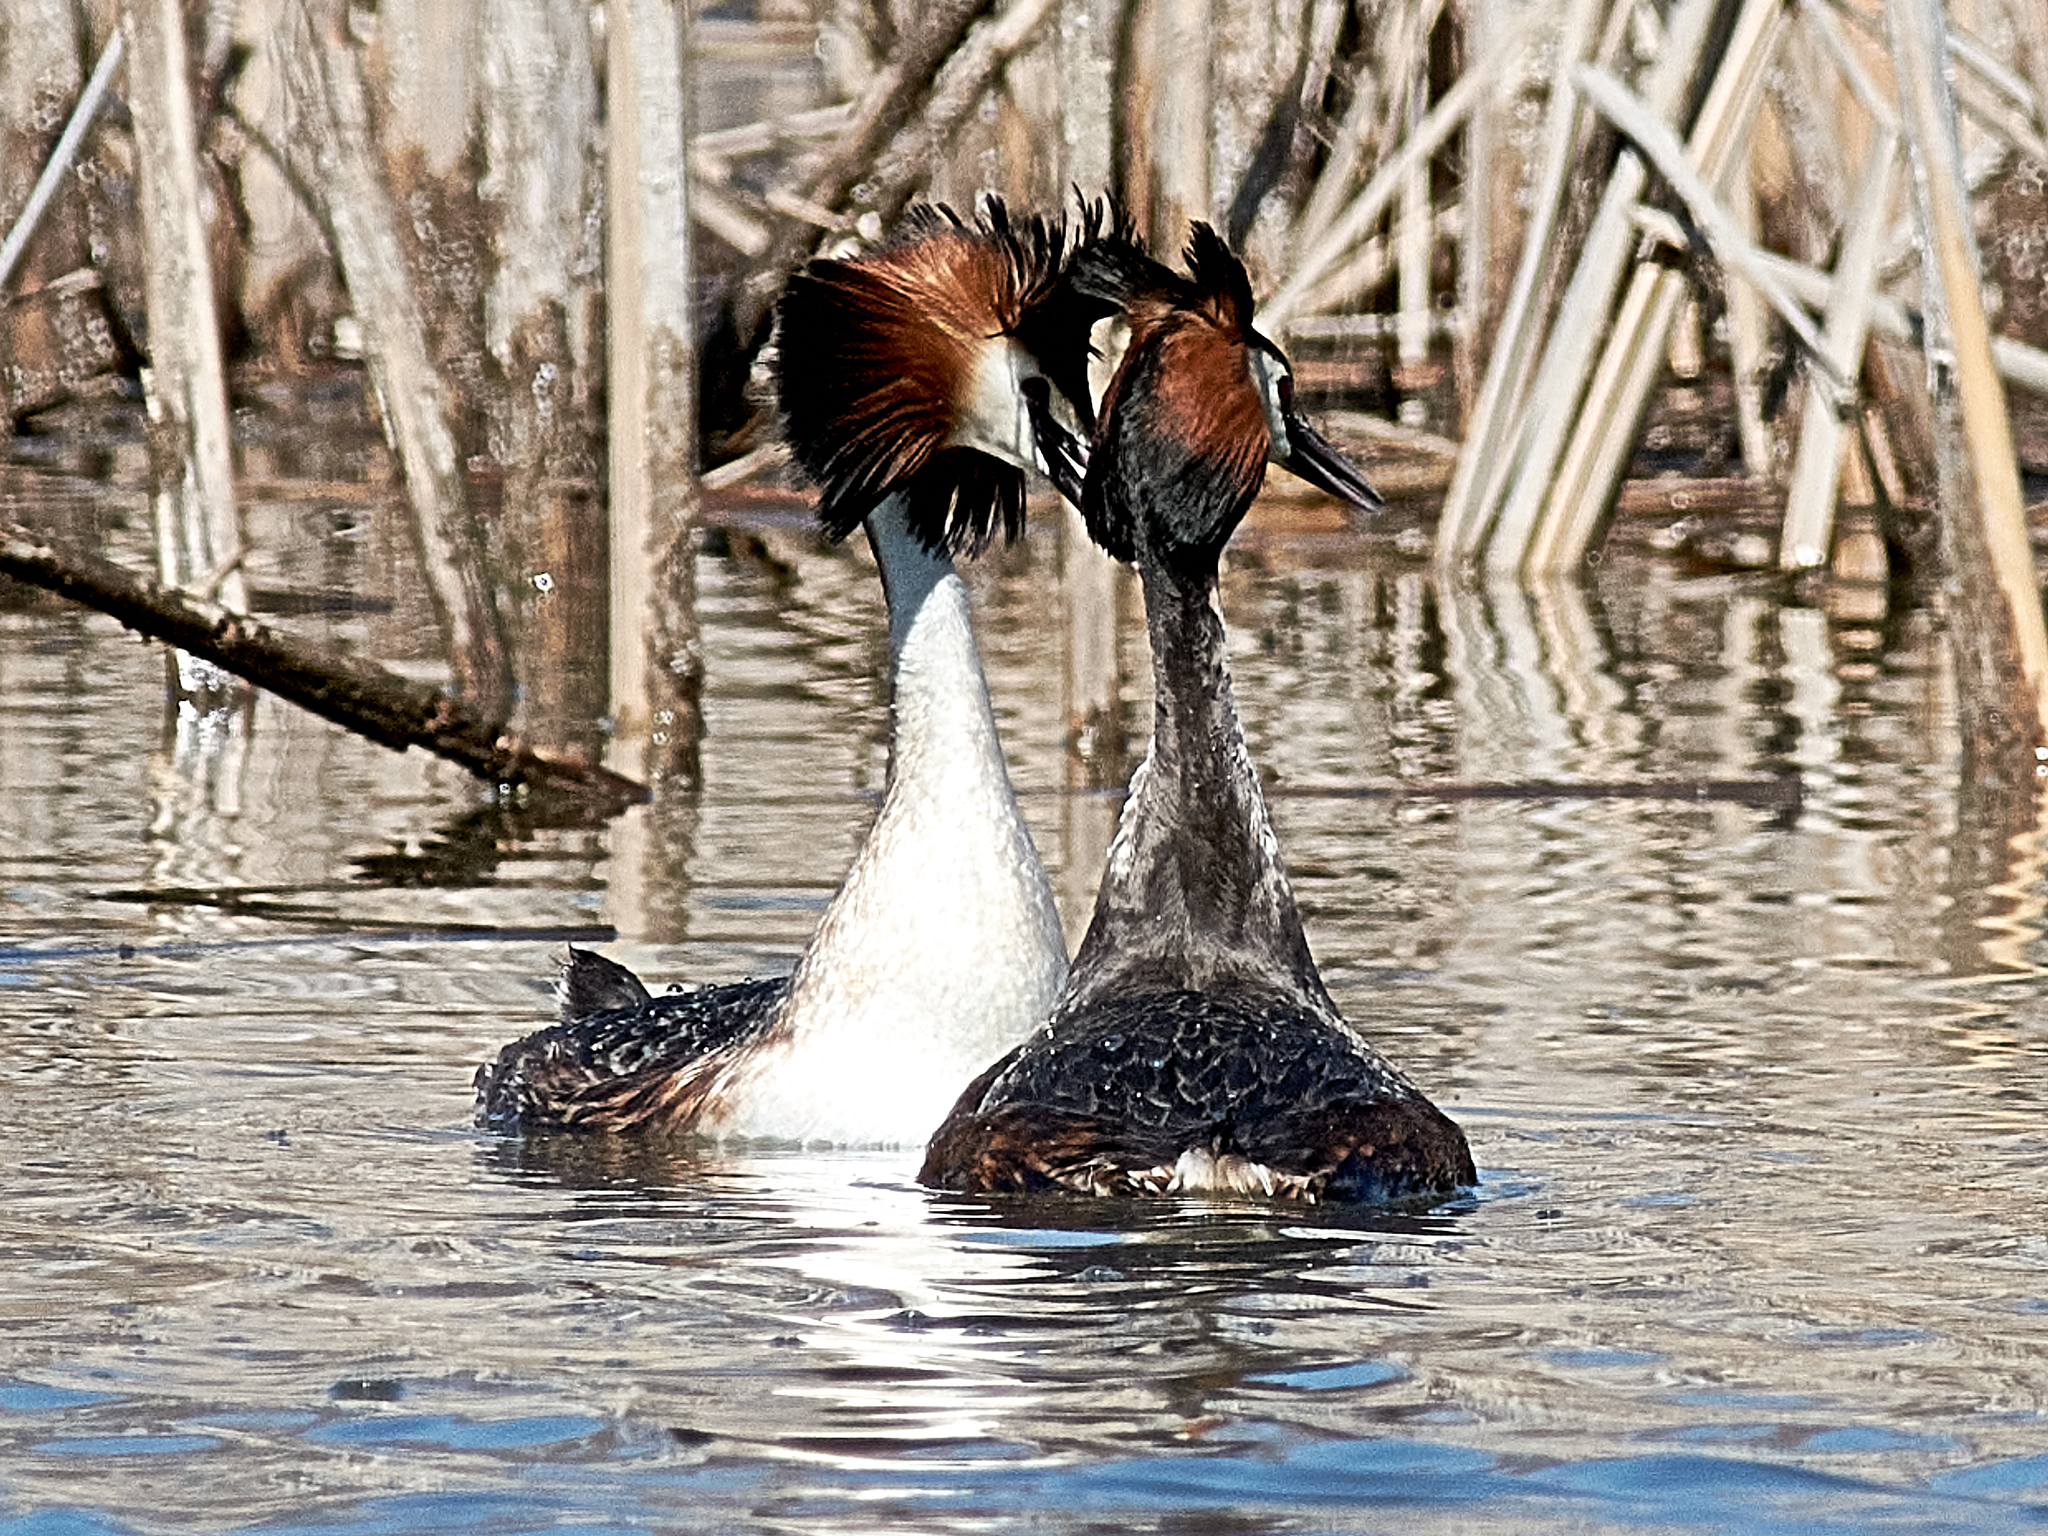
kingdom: Animalia
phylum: Chordata
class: Aves
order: Podicipediformes
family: Podicipedidae
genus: Podiceps
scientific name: Podiceps cristatus
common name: Great crested grebe
